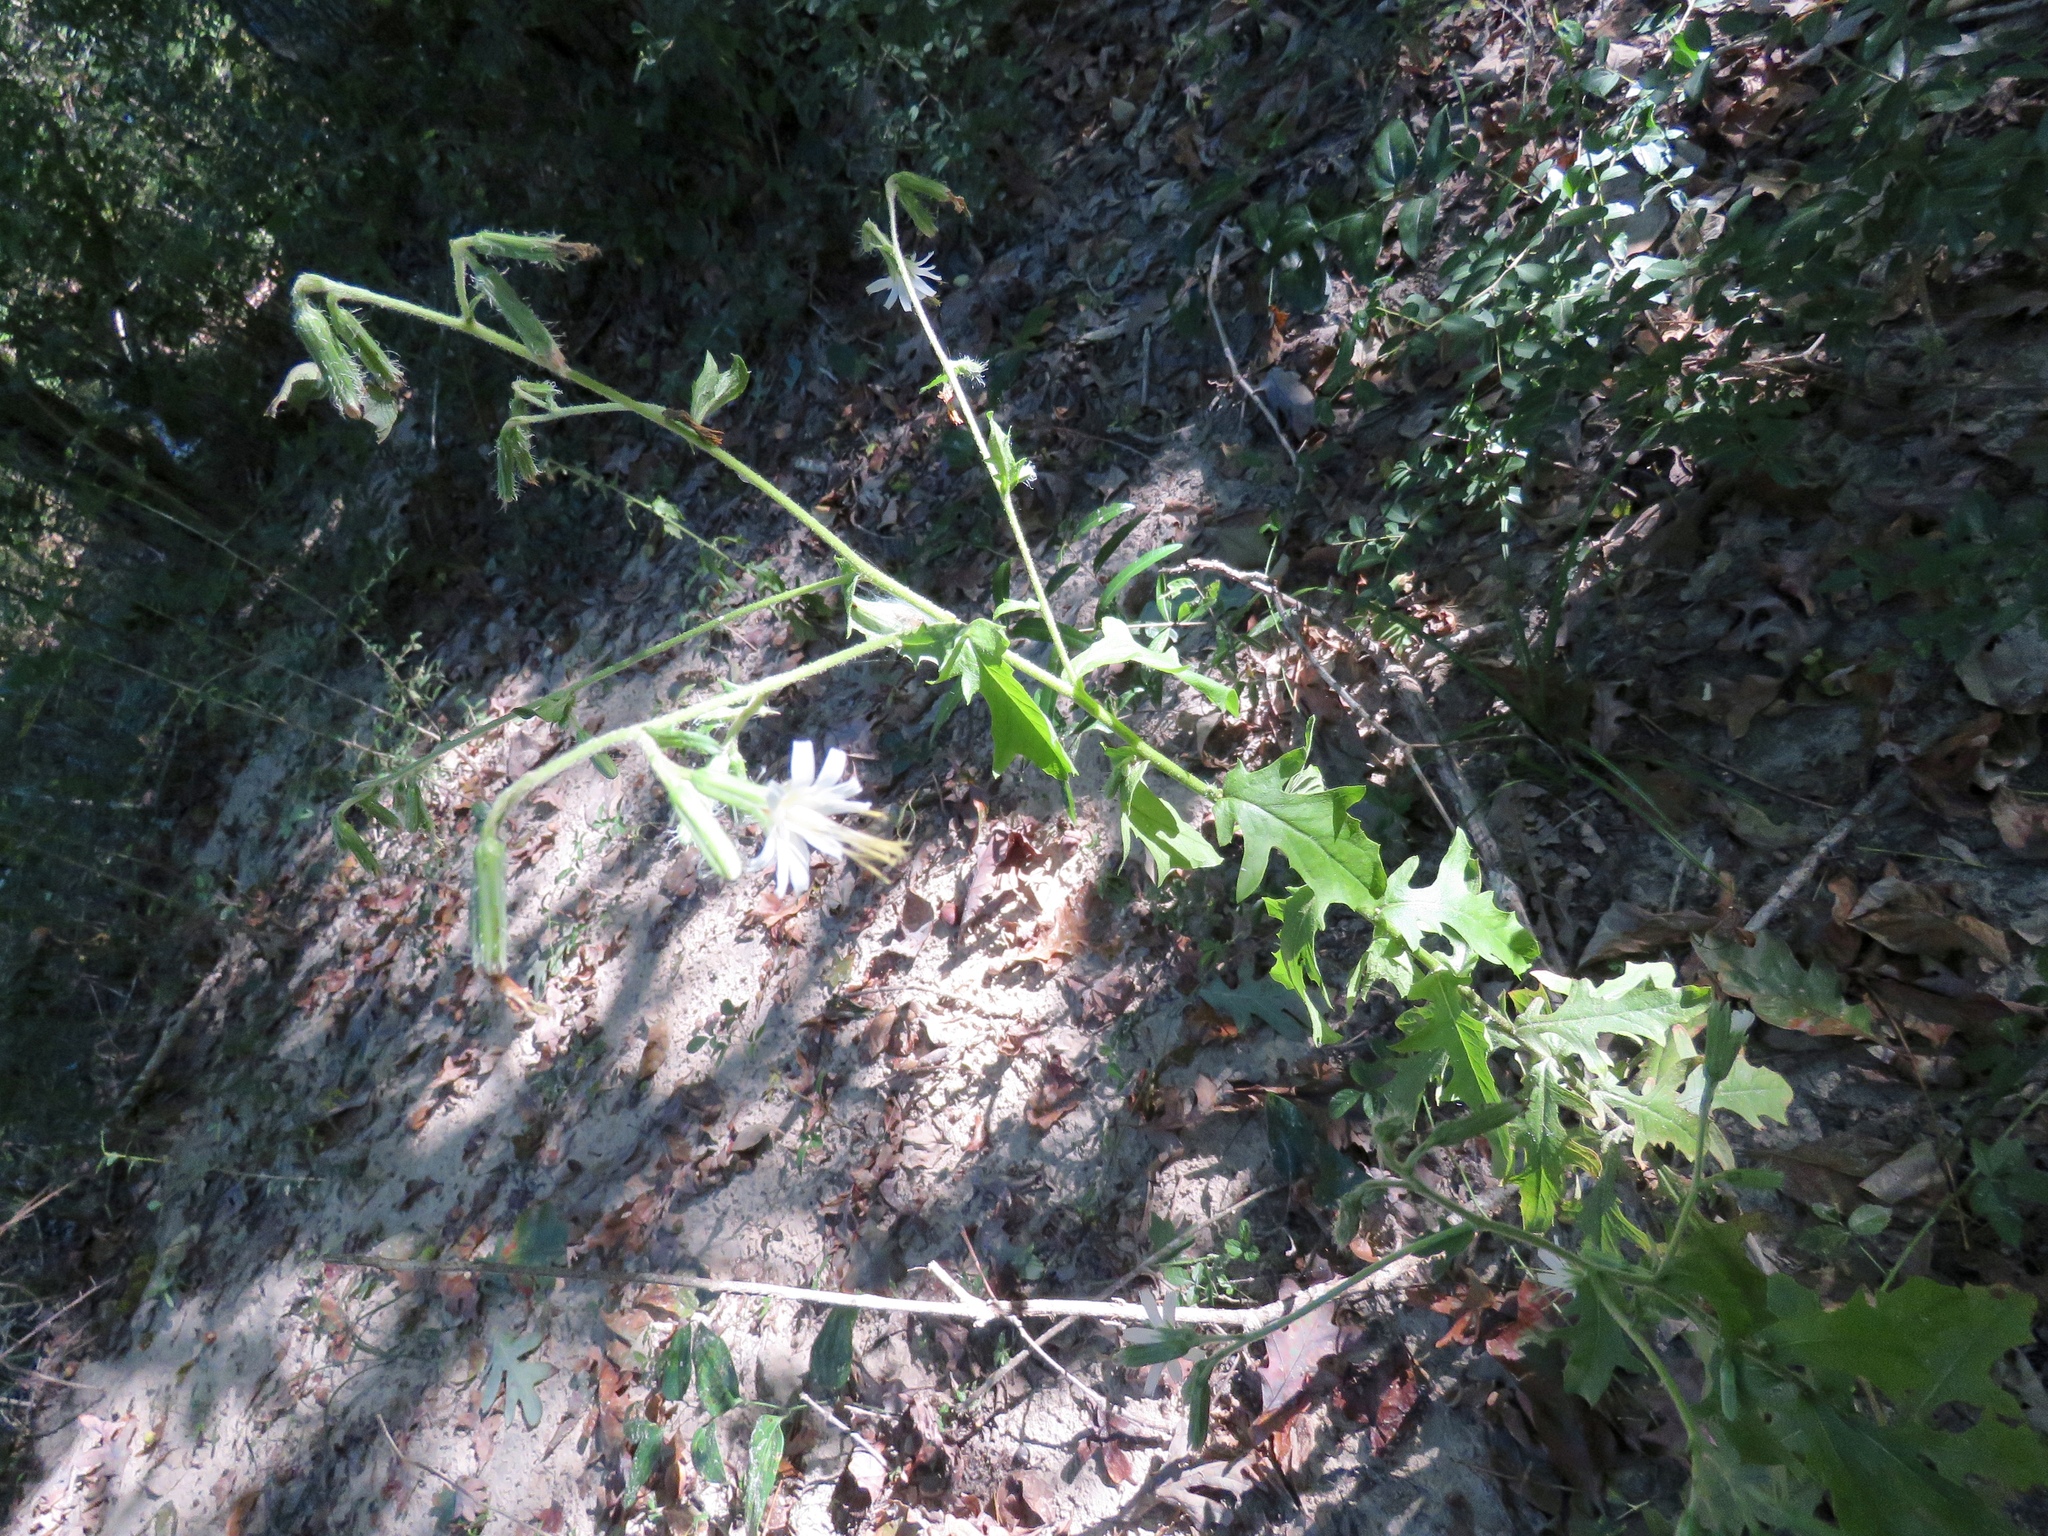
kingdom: Plantae
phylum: Tracheophyta
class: Magnoliopsida
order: Asterales
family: Asteraceae
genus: Nabalus
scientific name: Nabalus barbata
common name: Barbed rattlesnakeroot
